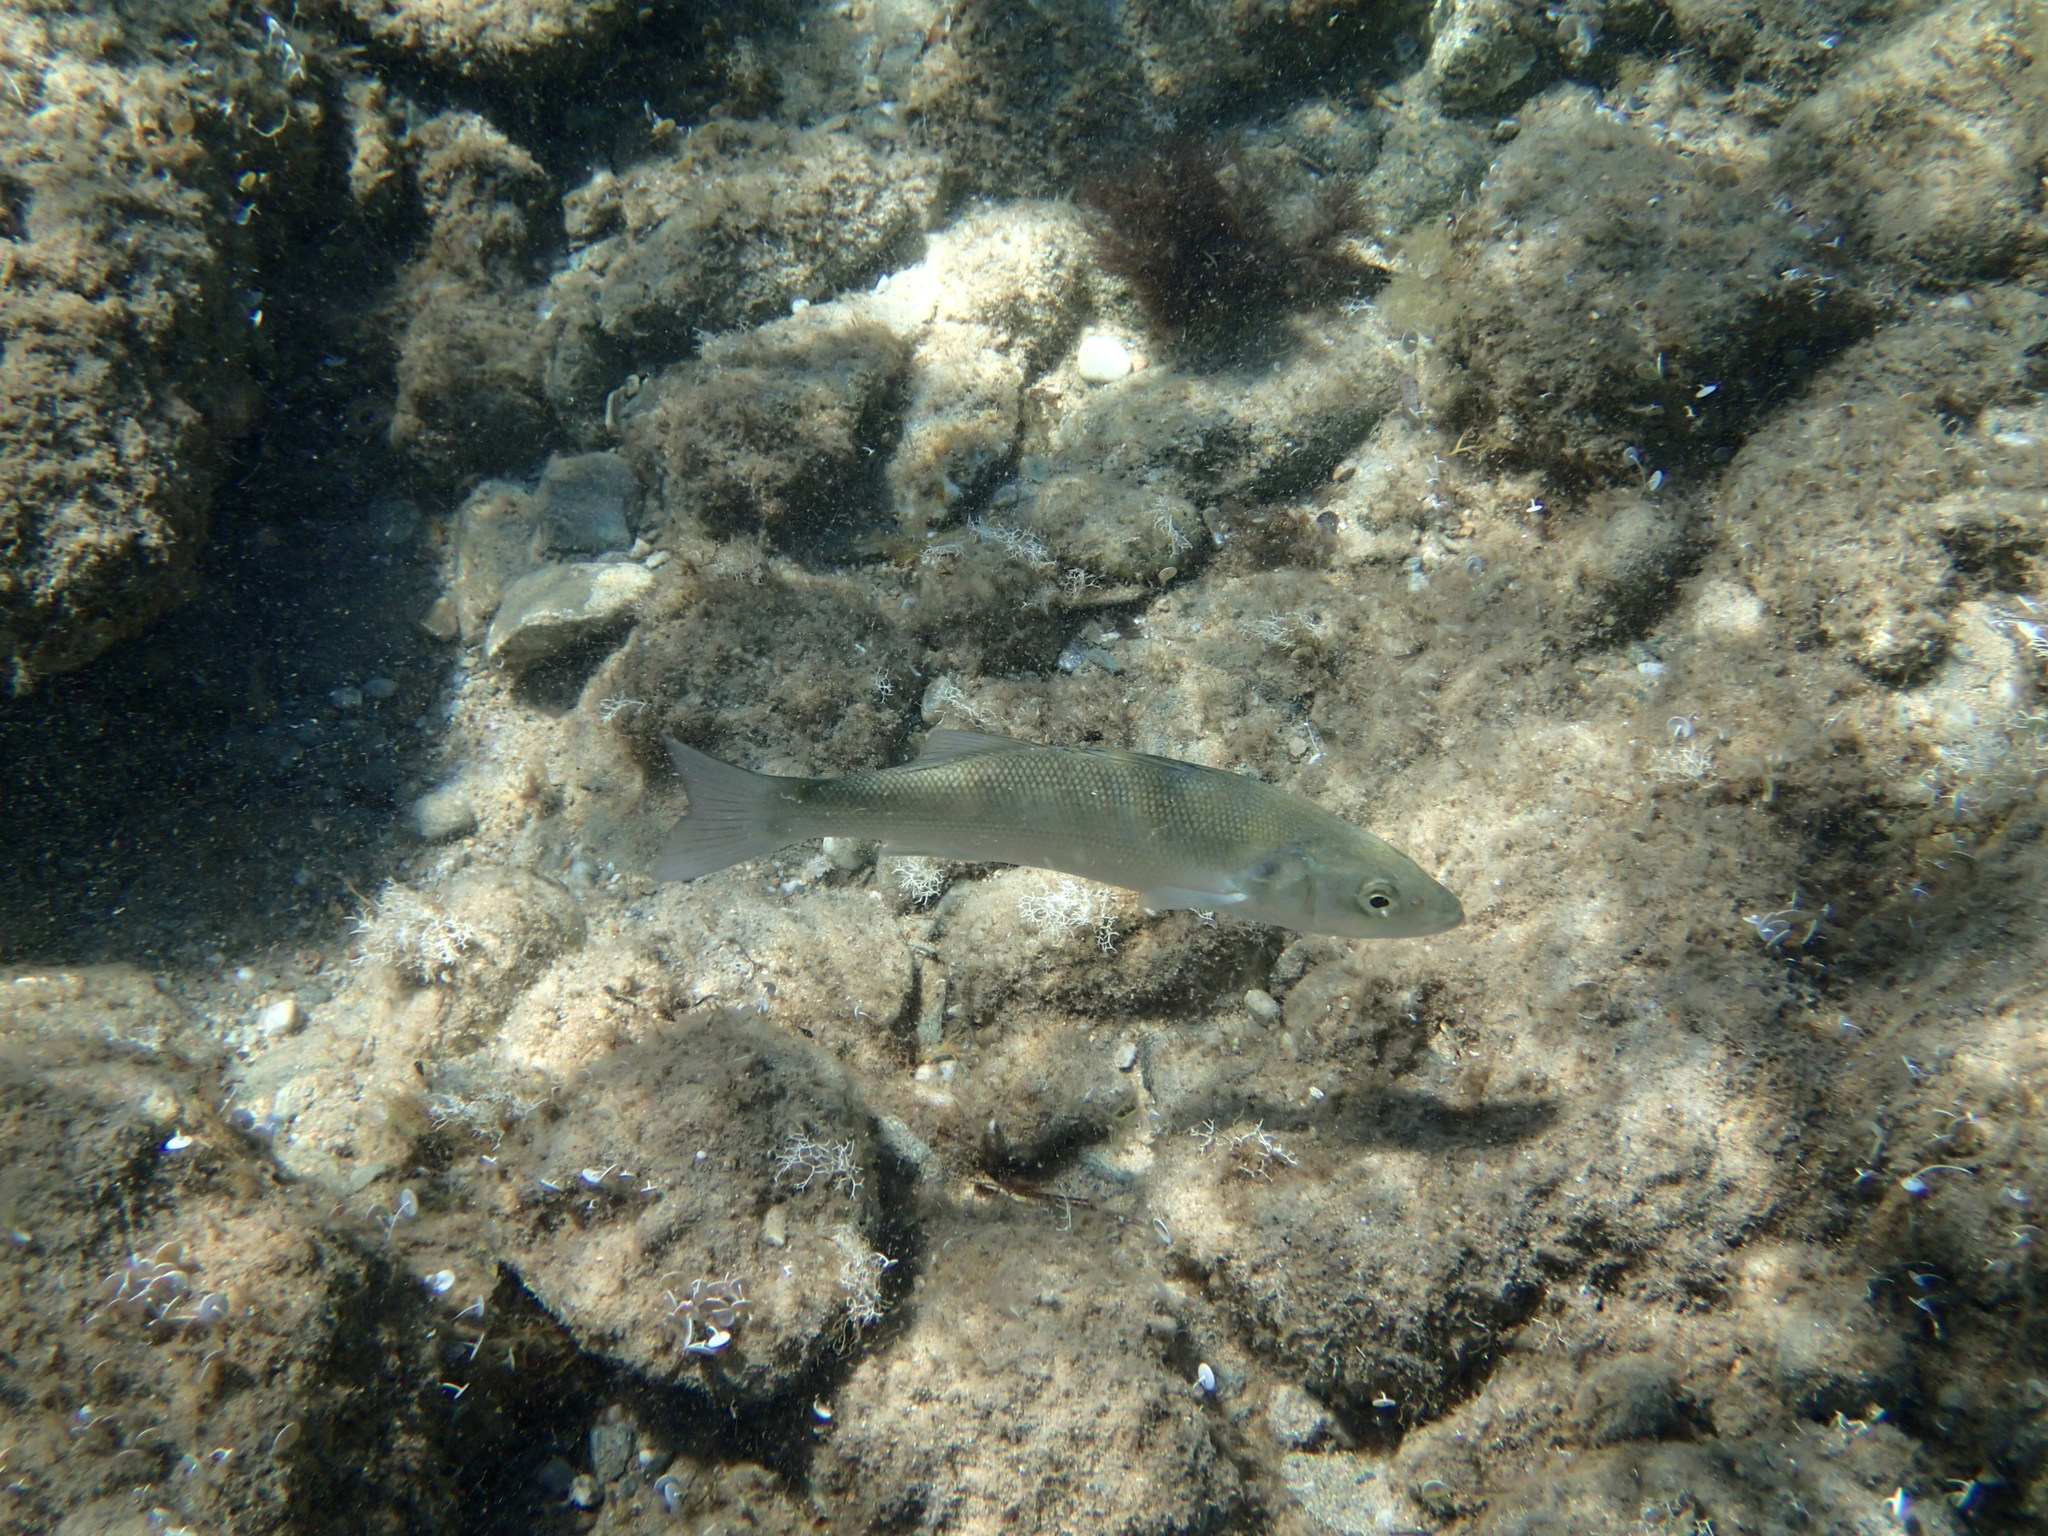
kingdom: Animalia
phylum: Chordata
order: Perciformes
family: Moronidae
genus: Dicentrarchus
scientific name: Dicentrarchus labrax
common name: European seabass
